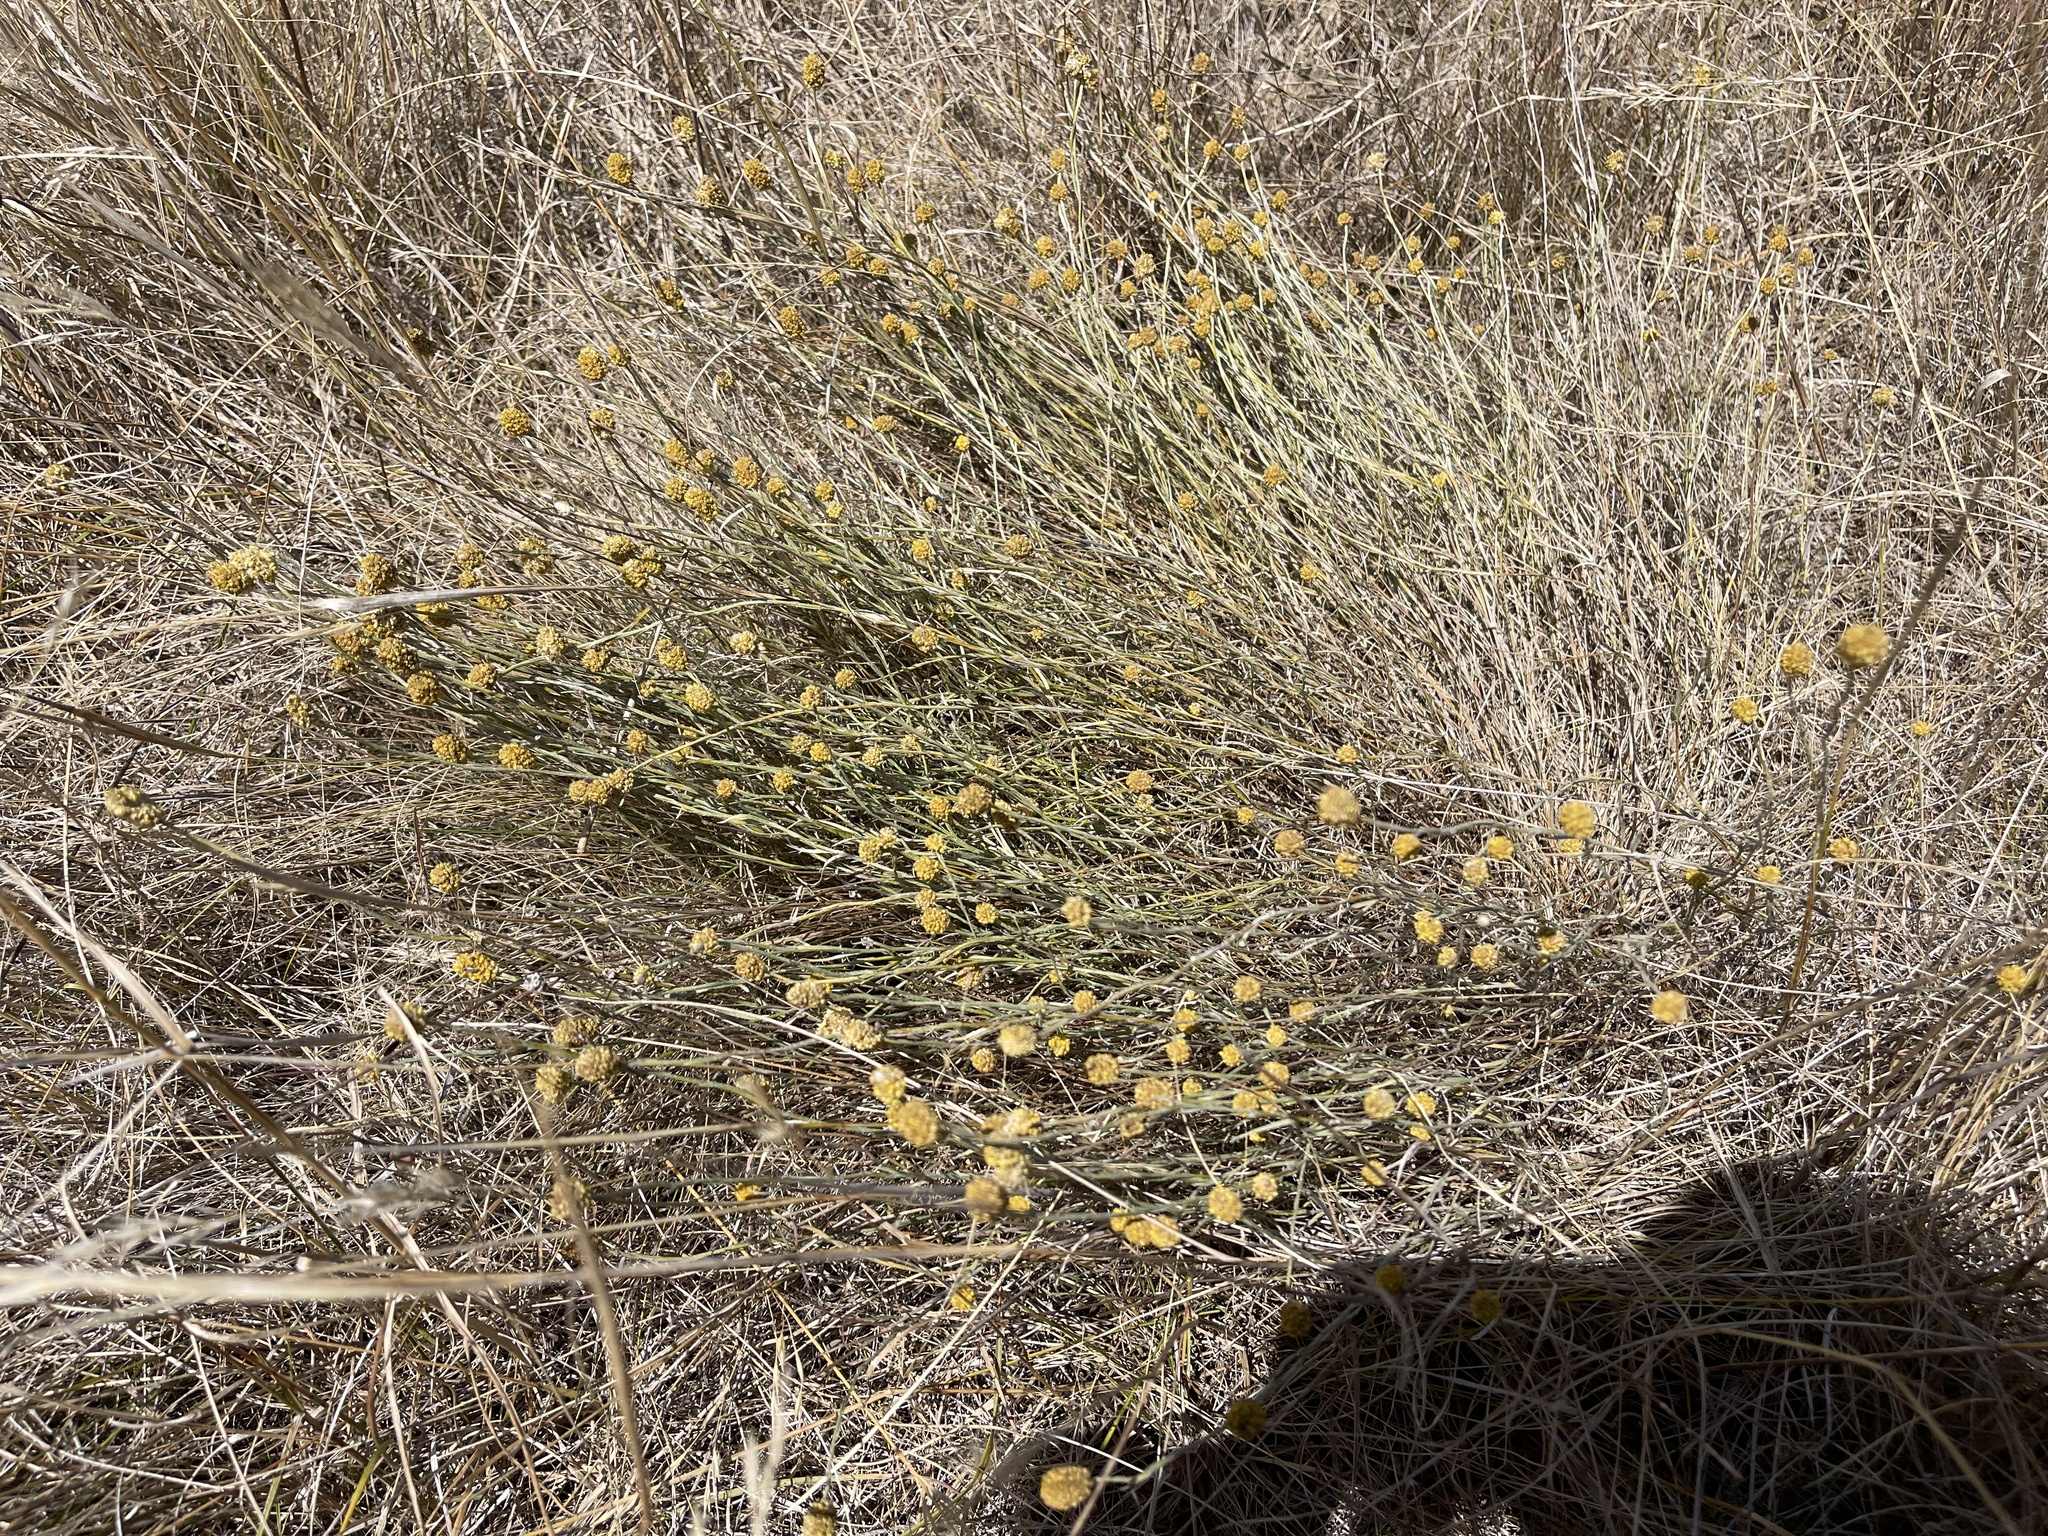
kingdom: Plantae
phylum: Tracheophyta
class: Magnoliopsida
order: Asterales
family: Asteraceae
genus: Calocephalus
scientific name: Calocephalus citreus
